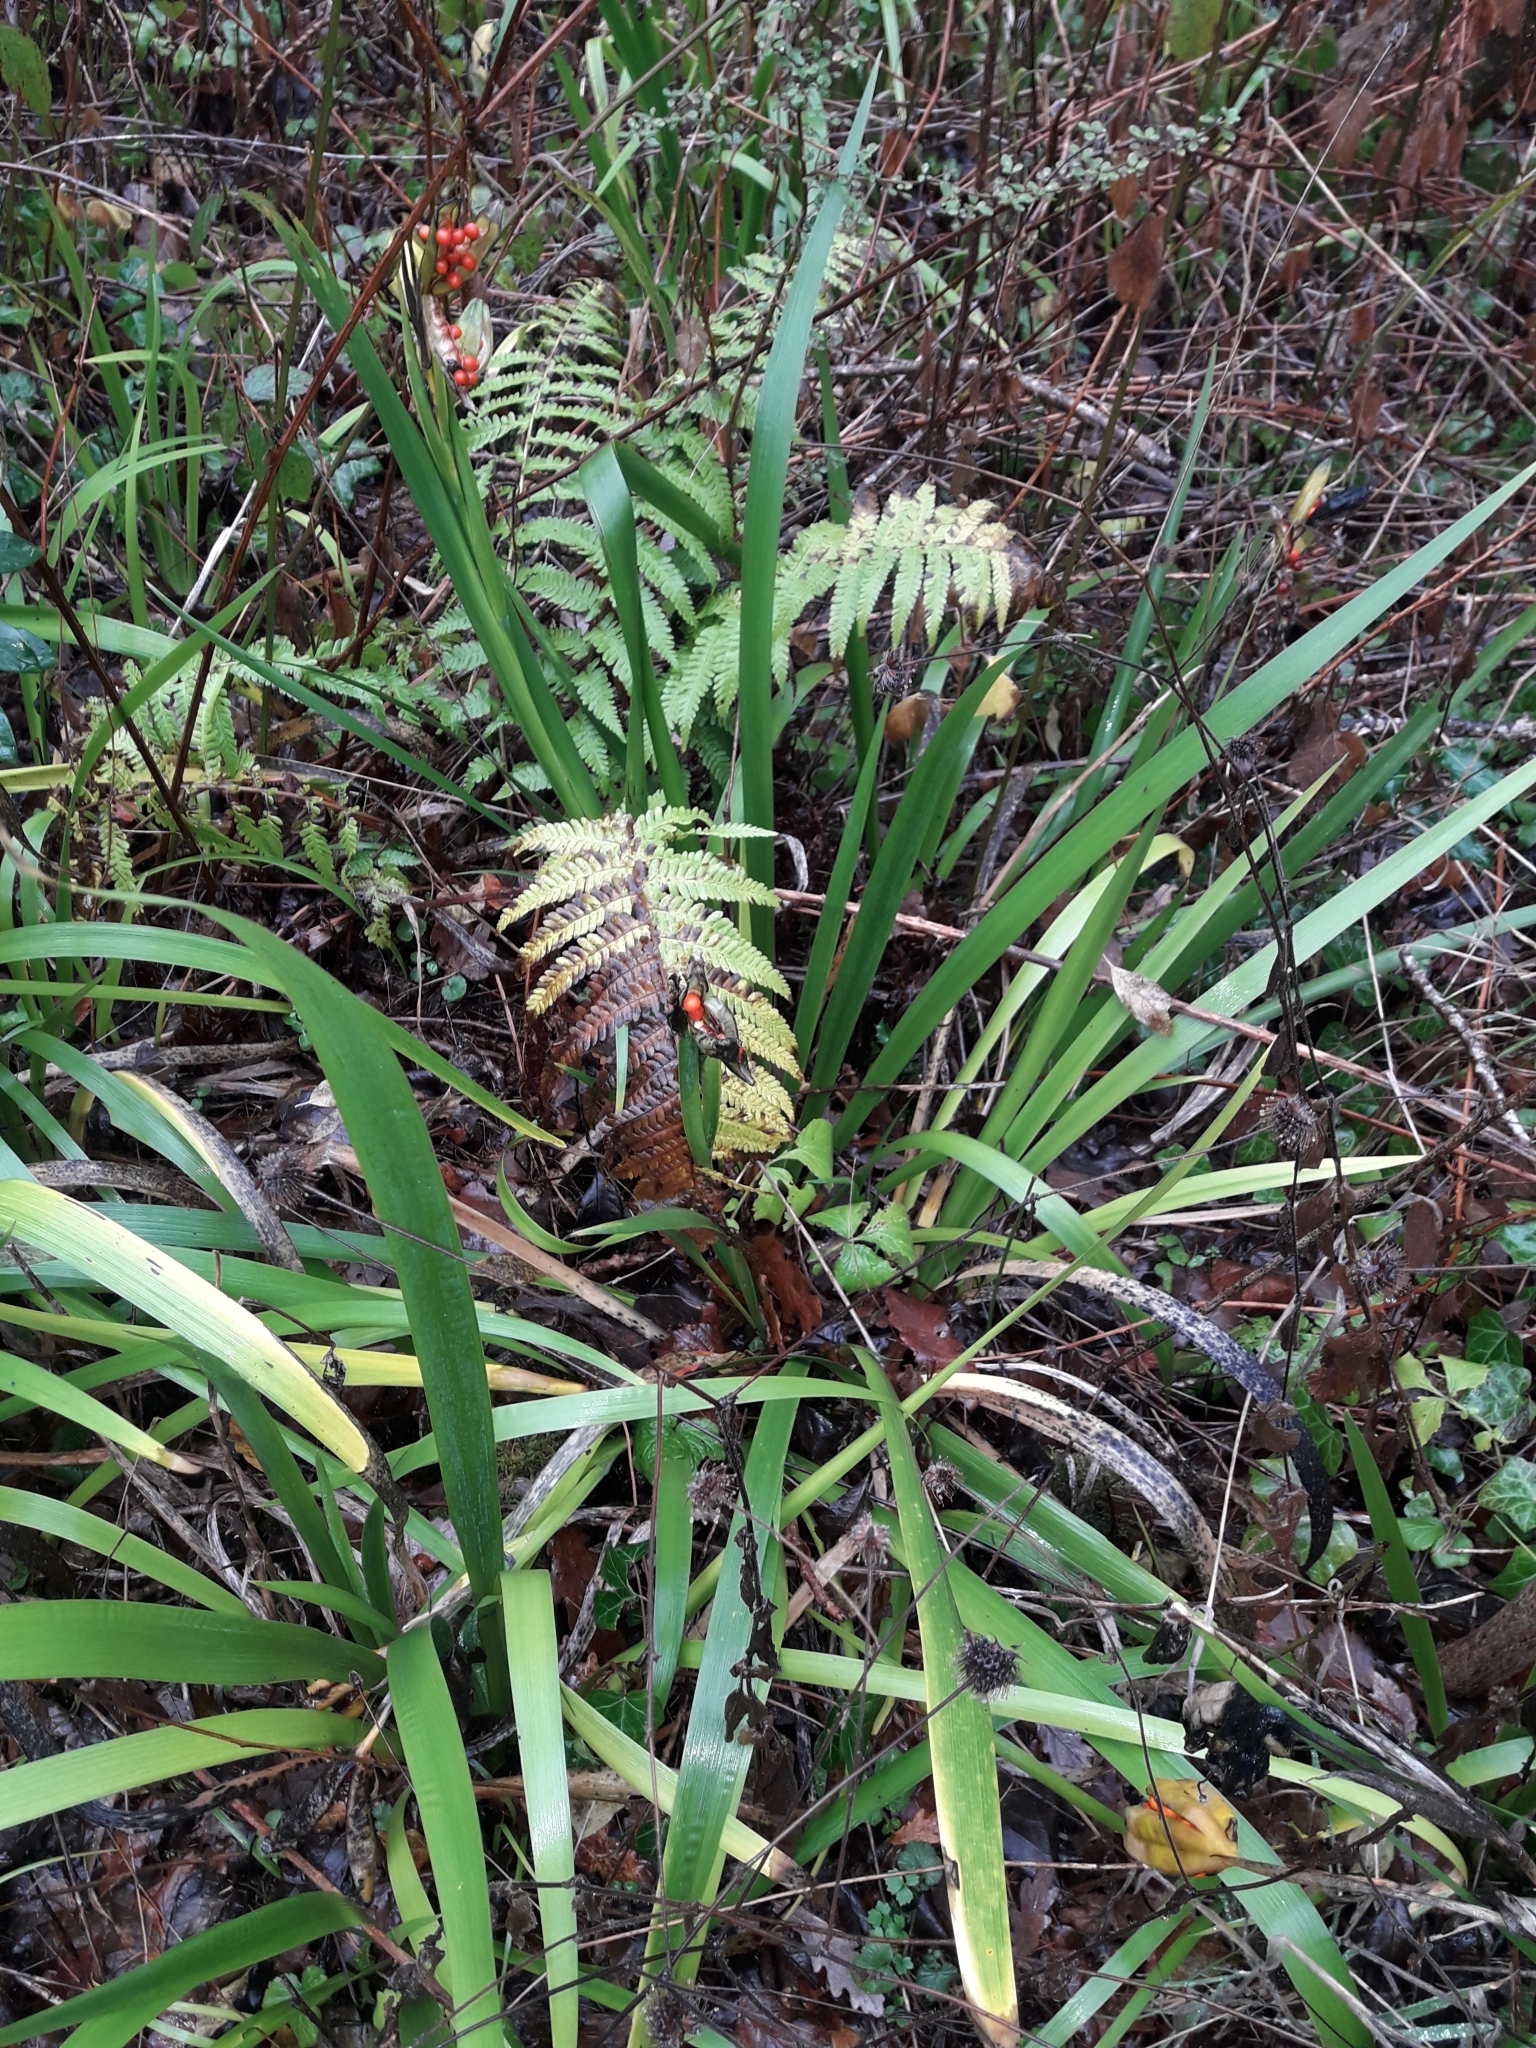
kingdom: Plantae
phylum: Tracheophyta
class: Liliopsida
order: Asparagales
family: Iridaceae
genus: Iris
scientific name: Iris foetidissima
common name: Stinking iris
